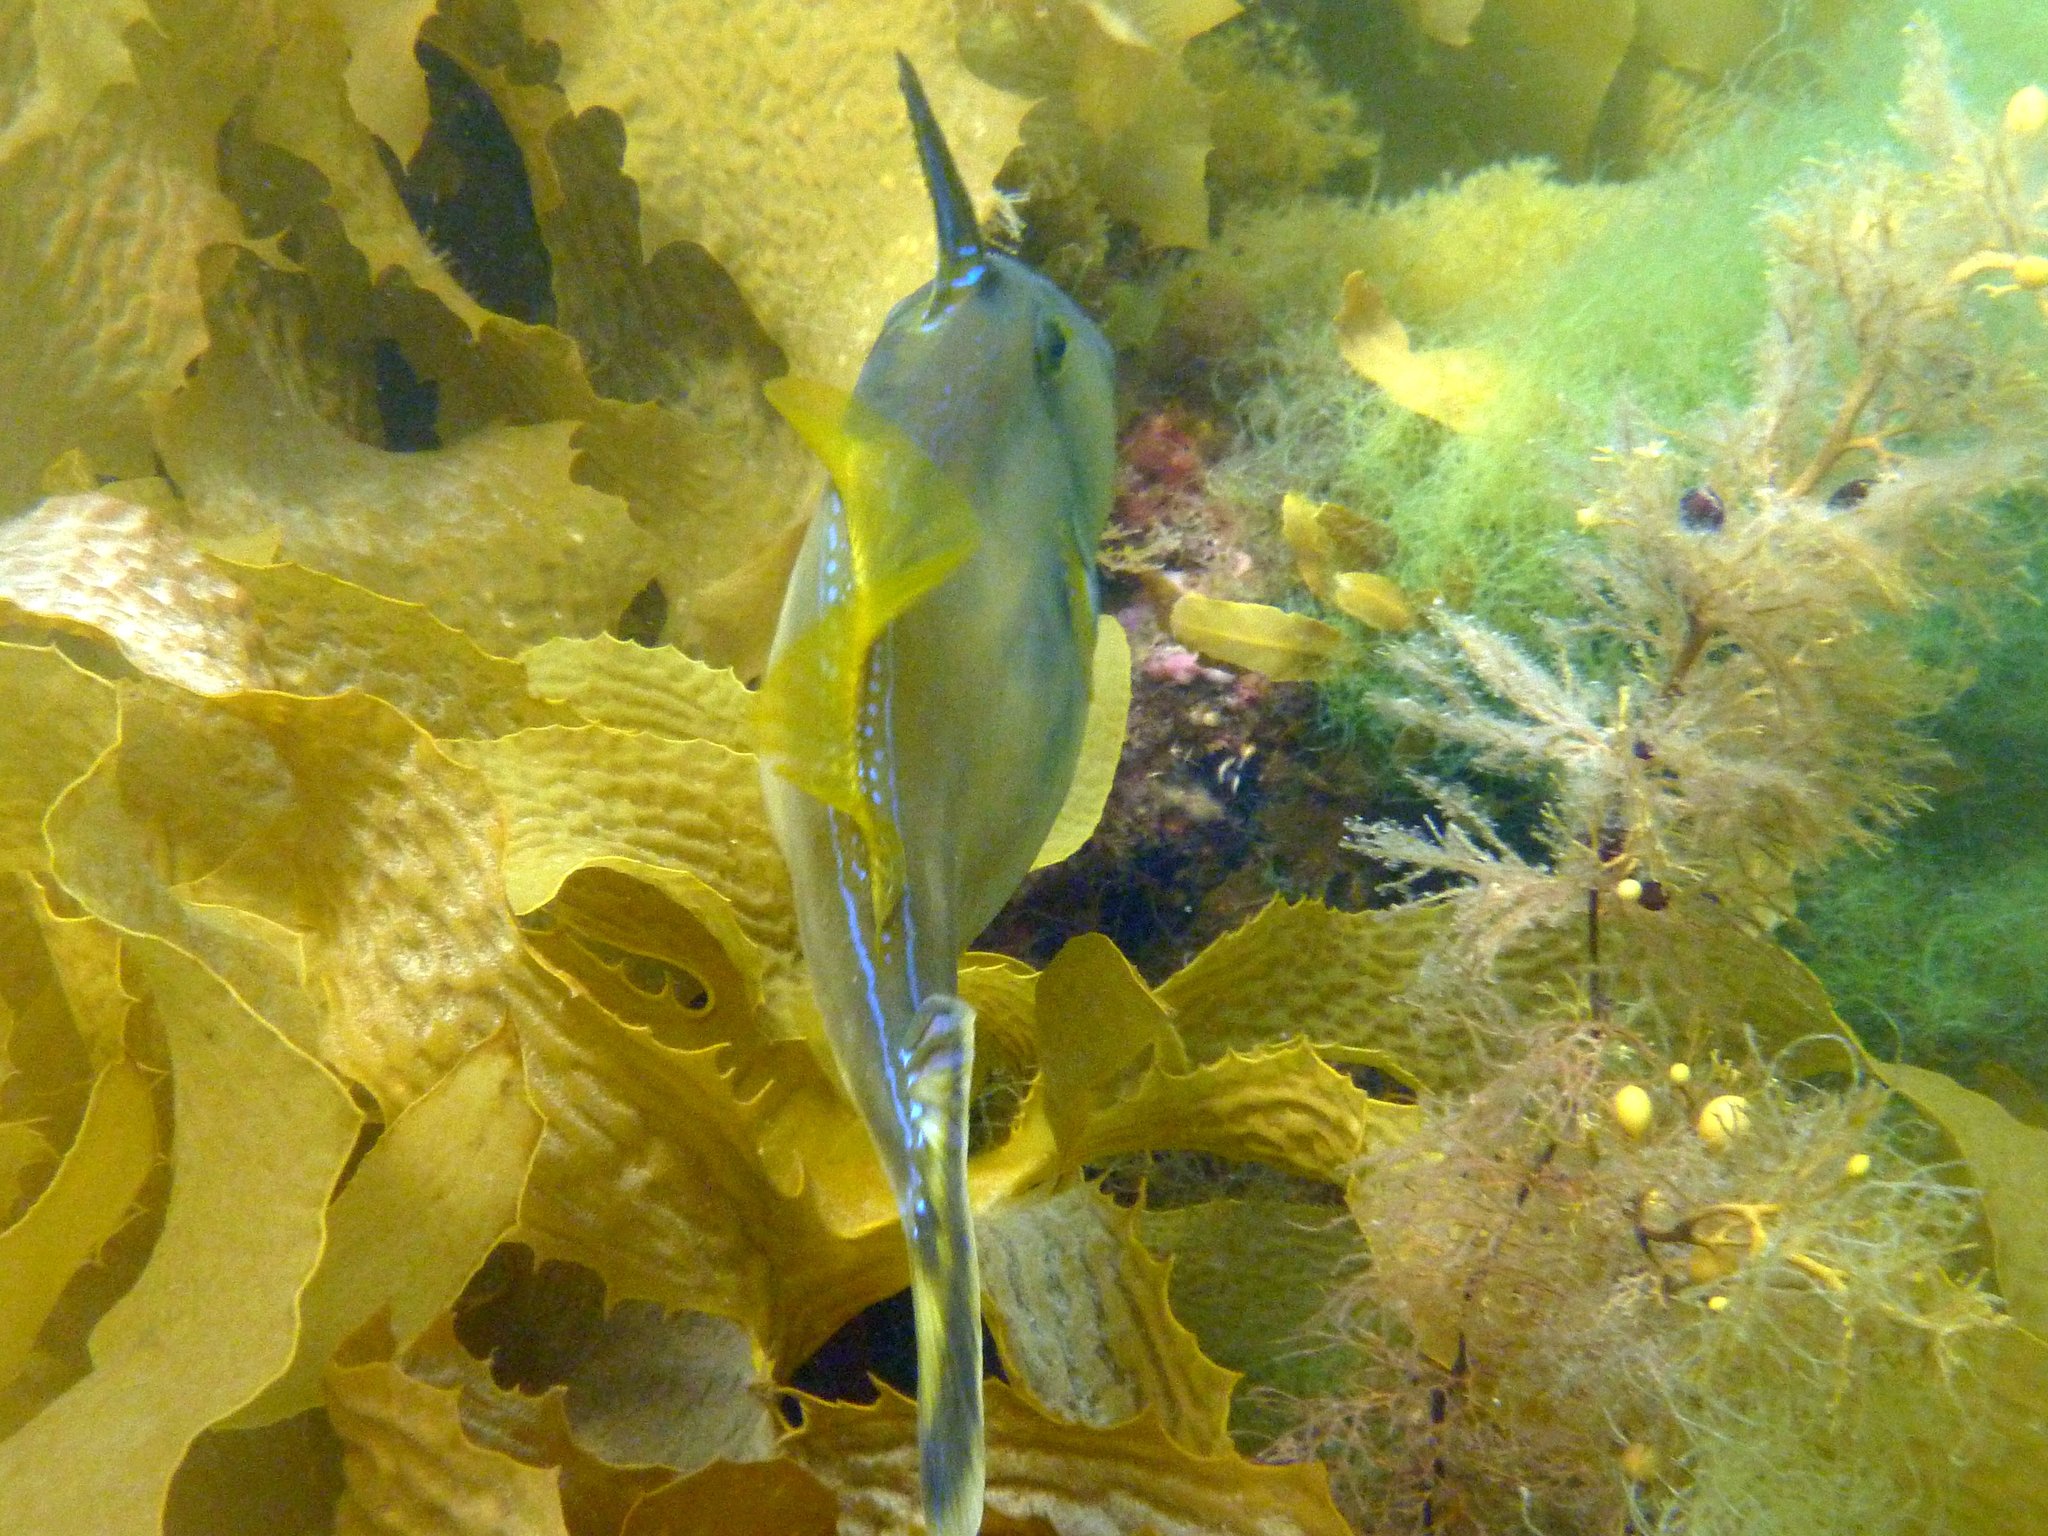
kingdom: Animalia
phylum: Chordata
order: Tetraodontiformes
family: Monacanthidae
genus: Meuschenia
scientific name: Meuschenia freycineti
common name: Freycinet's leatherjacket
